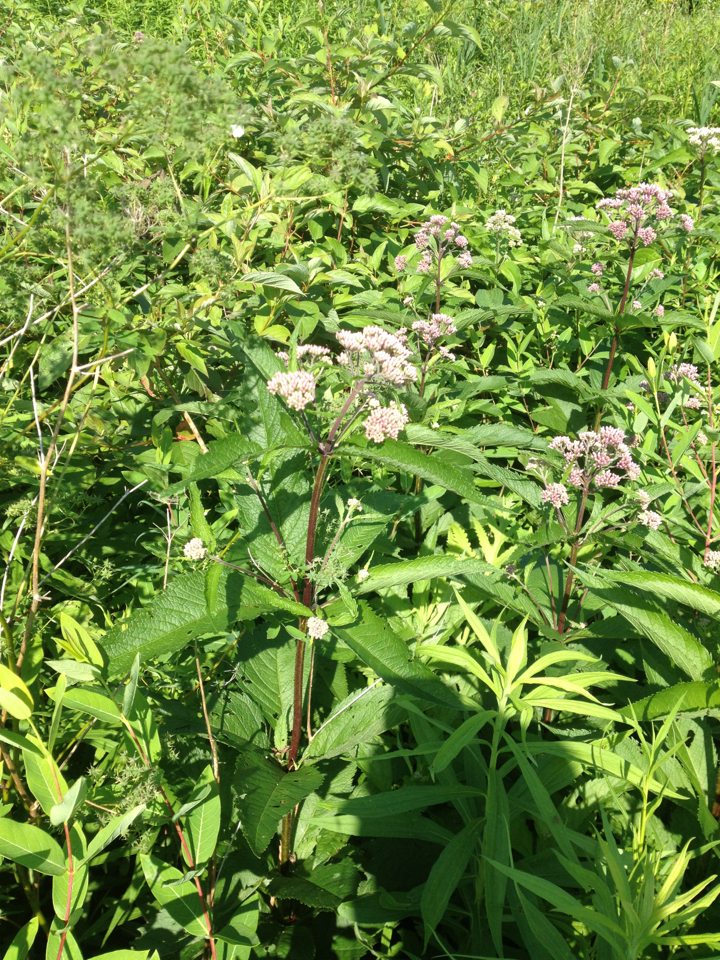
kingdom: Plantae
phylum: Tracheophyta
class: Magnoliopsida
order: Asterales
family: Asteraceae
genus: Eutrochium
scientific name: Eutrochium
